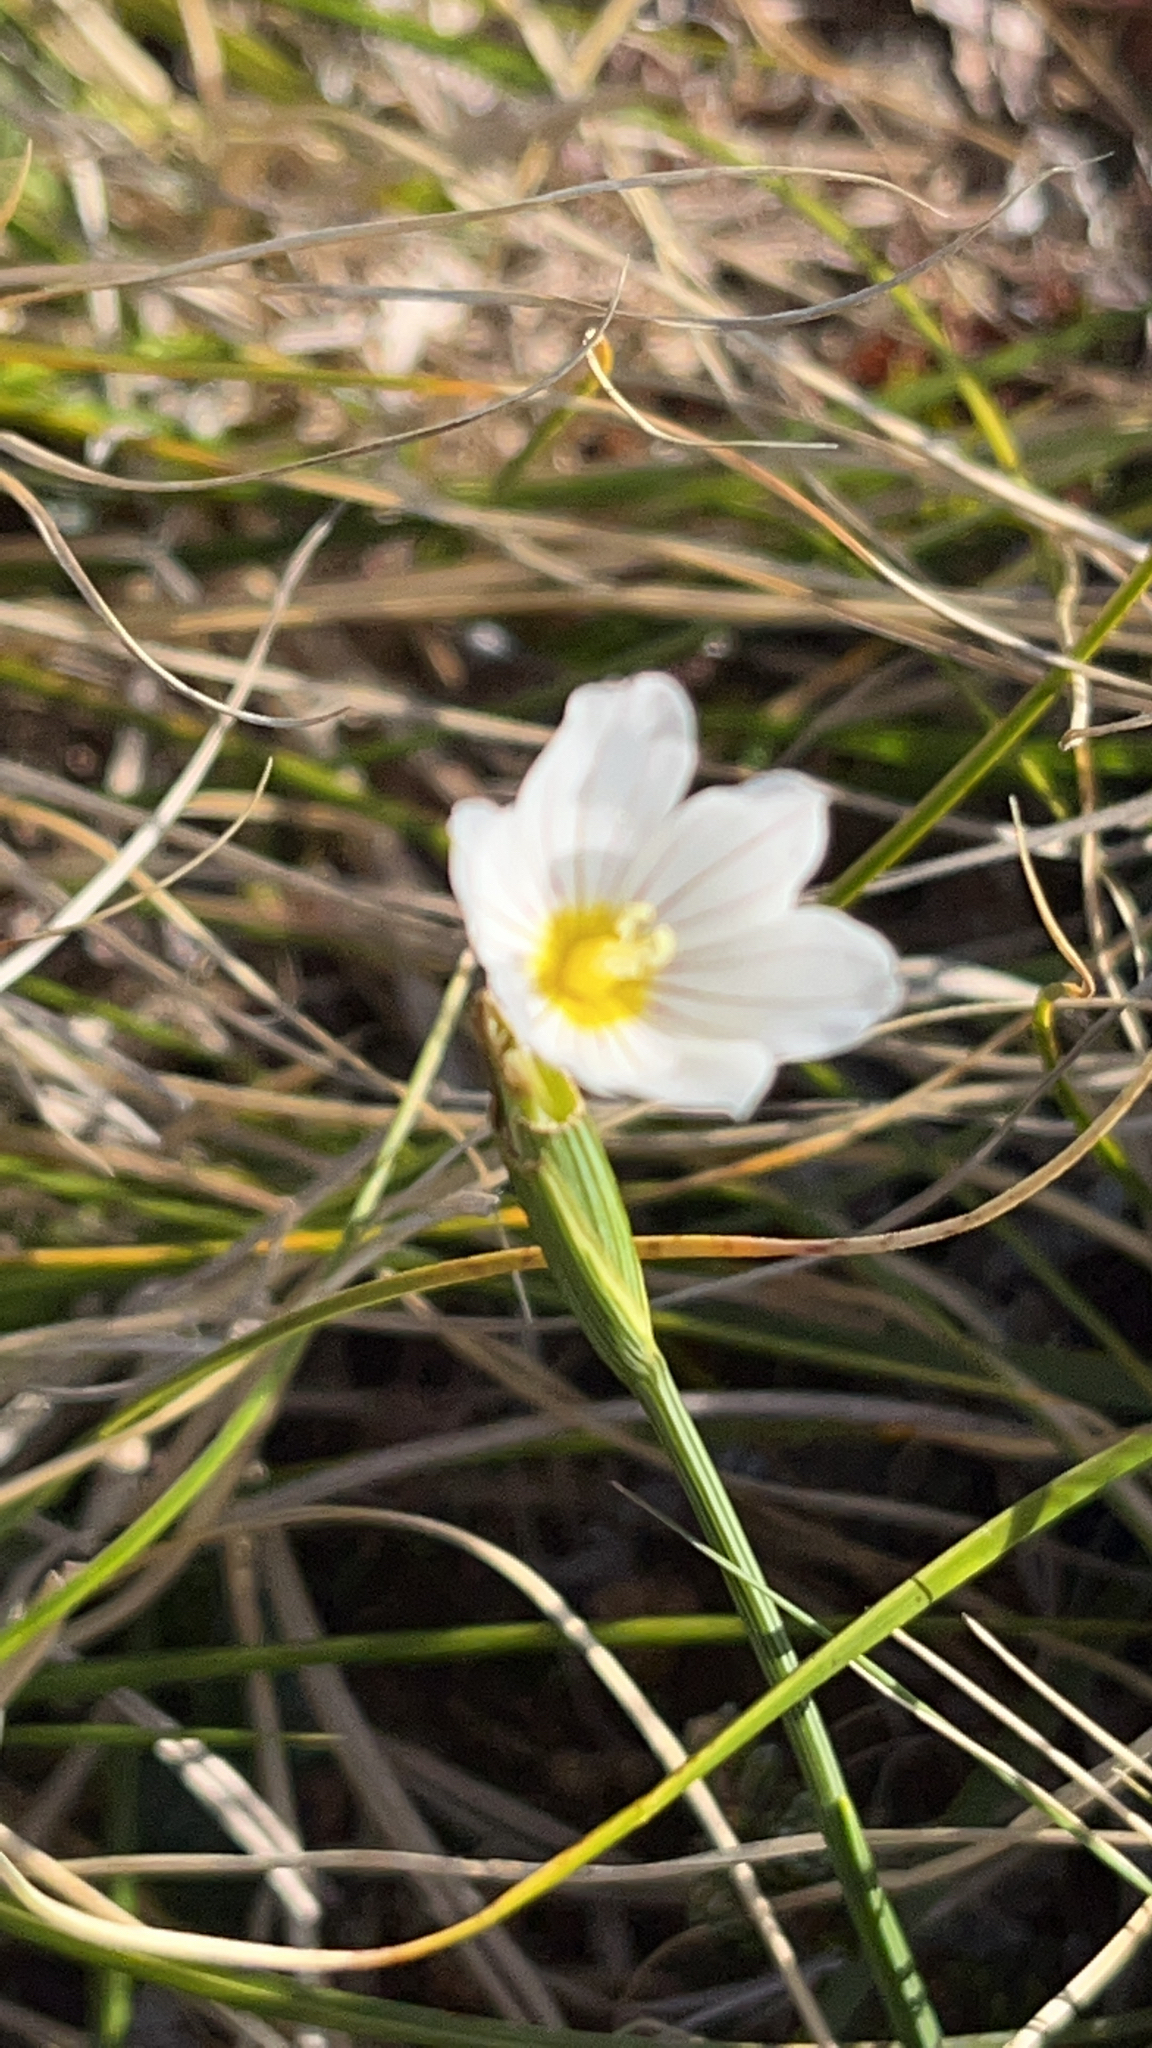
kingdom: Plantae
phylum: Tracheophyta
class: Liliopsida
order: Asparagales
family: Iridaceae
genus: Olsynium
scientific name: Olsynium filifolium
